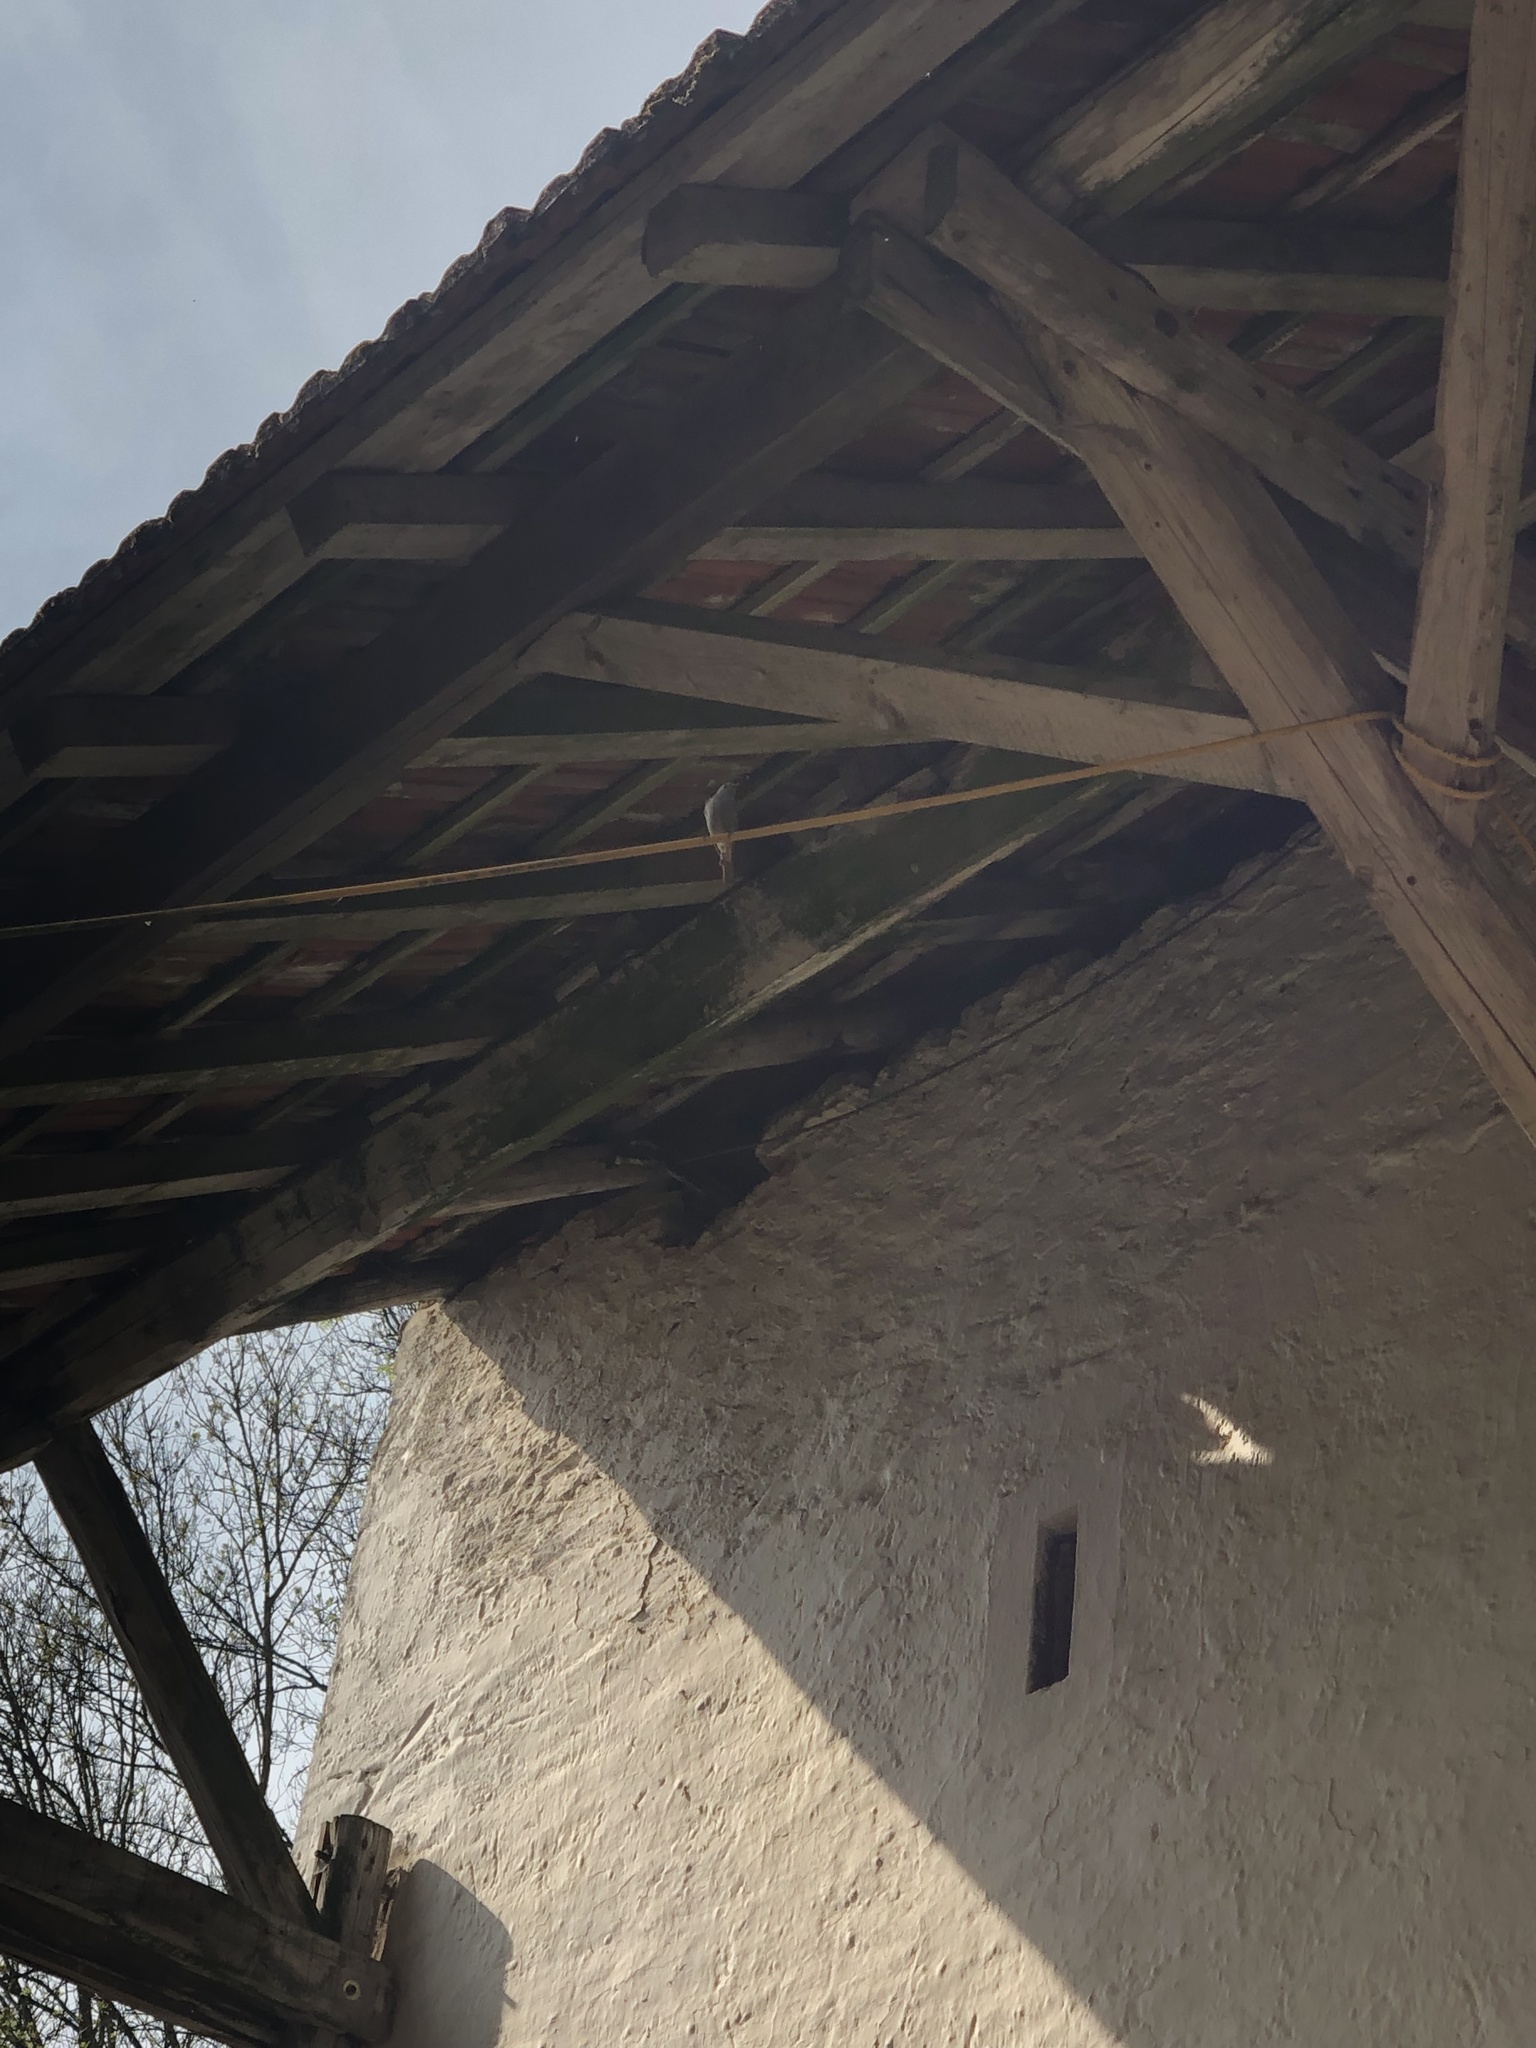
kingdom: Animalia
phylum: Chordata
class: Aves
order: Passeriformes
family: Muscicapidae
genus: Phoenicurus
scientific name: Phoenicurus ochruros
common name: Black redstart
